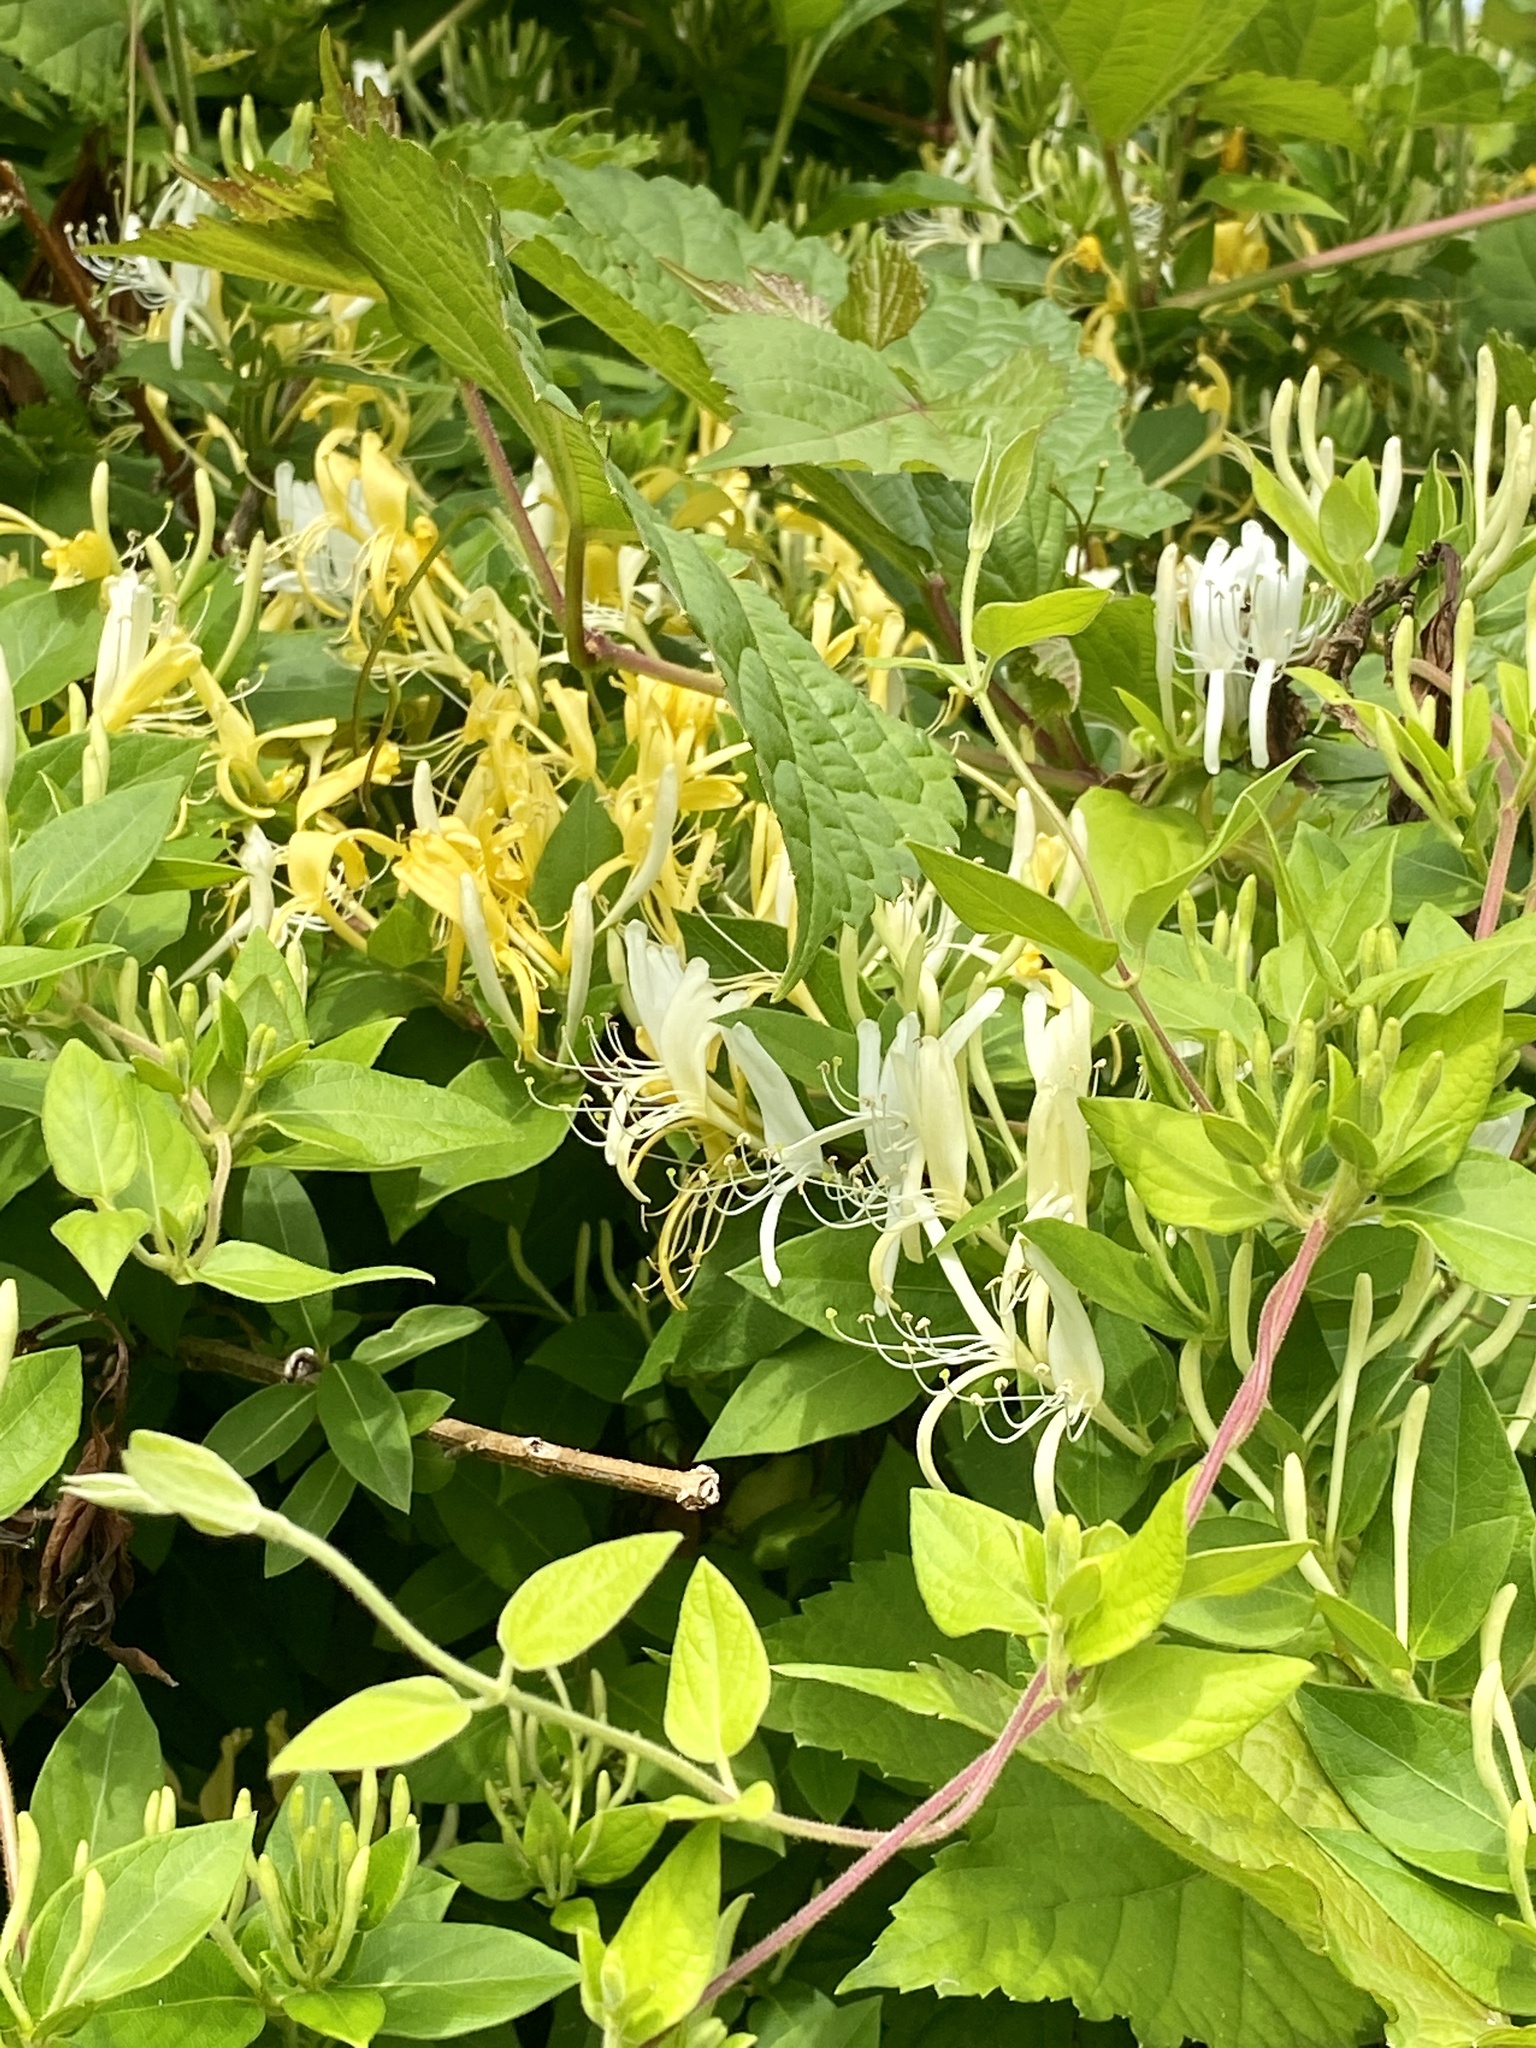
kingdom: Plantae
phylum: Tracheophyta
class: Magnoliopsida
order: Dipsacales
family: Caprifoliaceae
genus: Lonicera
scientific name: Lonicera japonica
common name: Japanese honeysuckle
